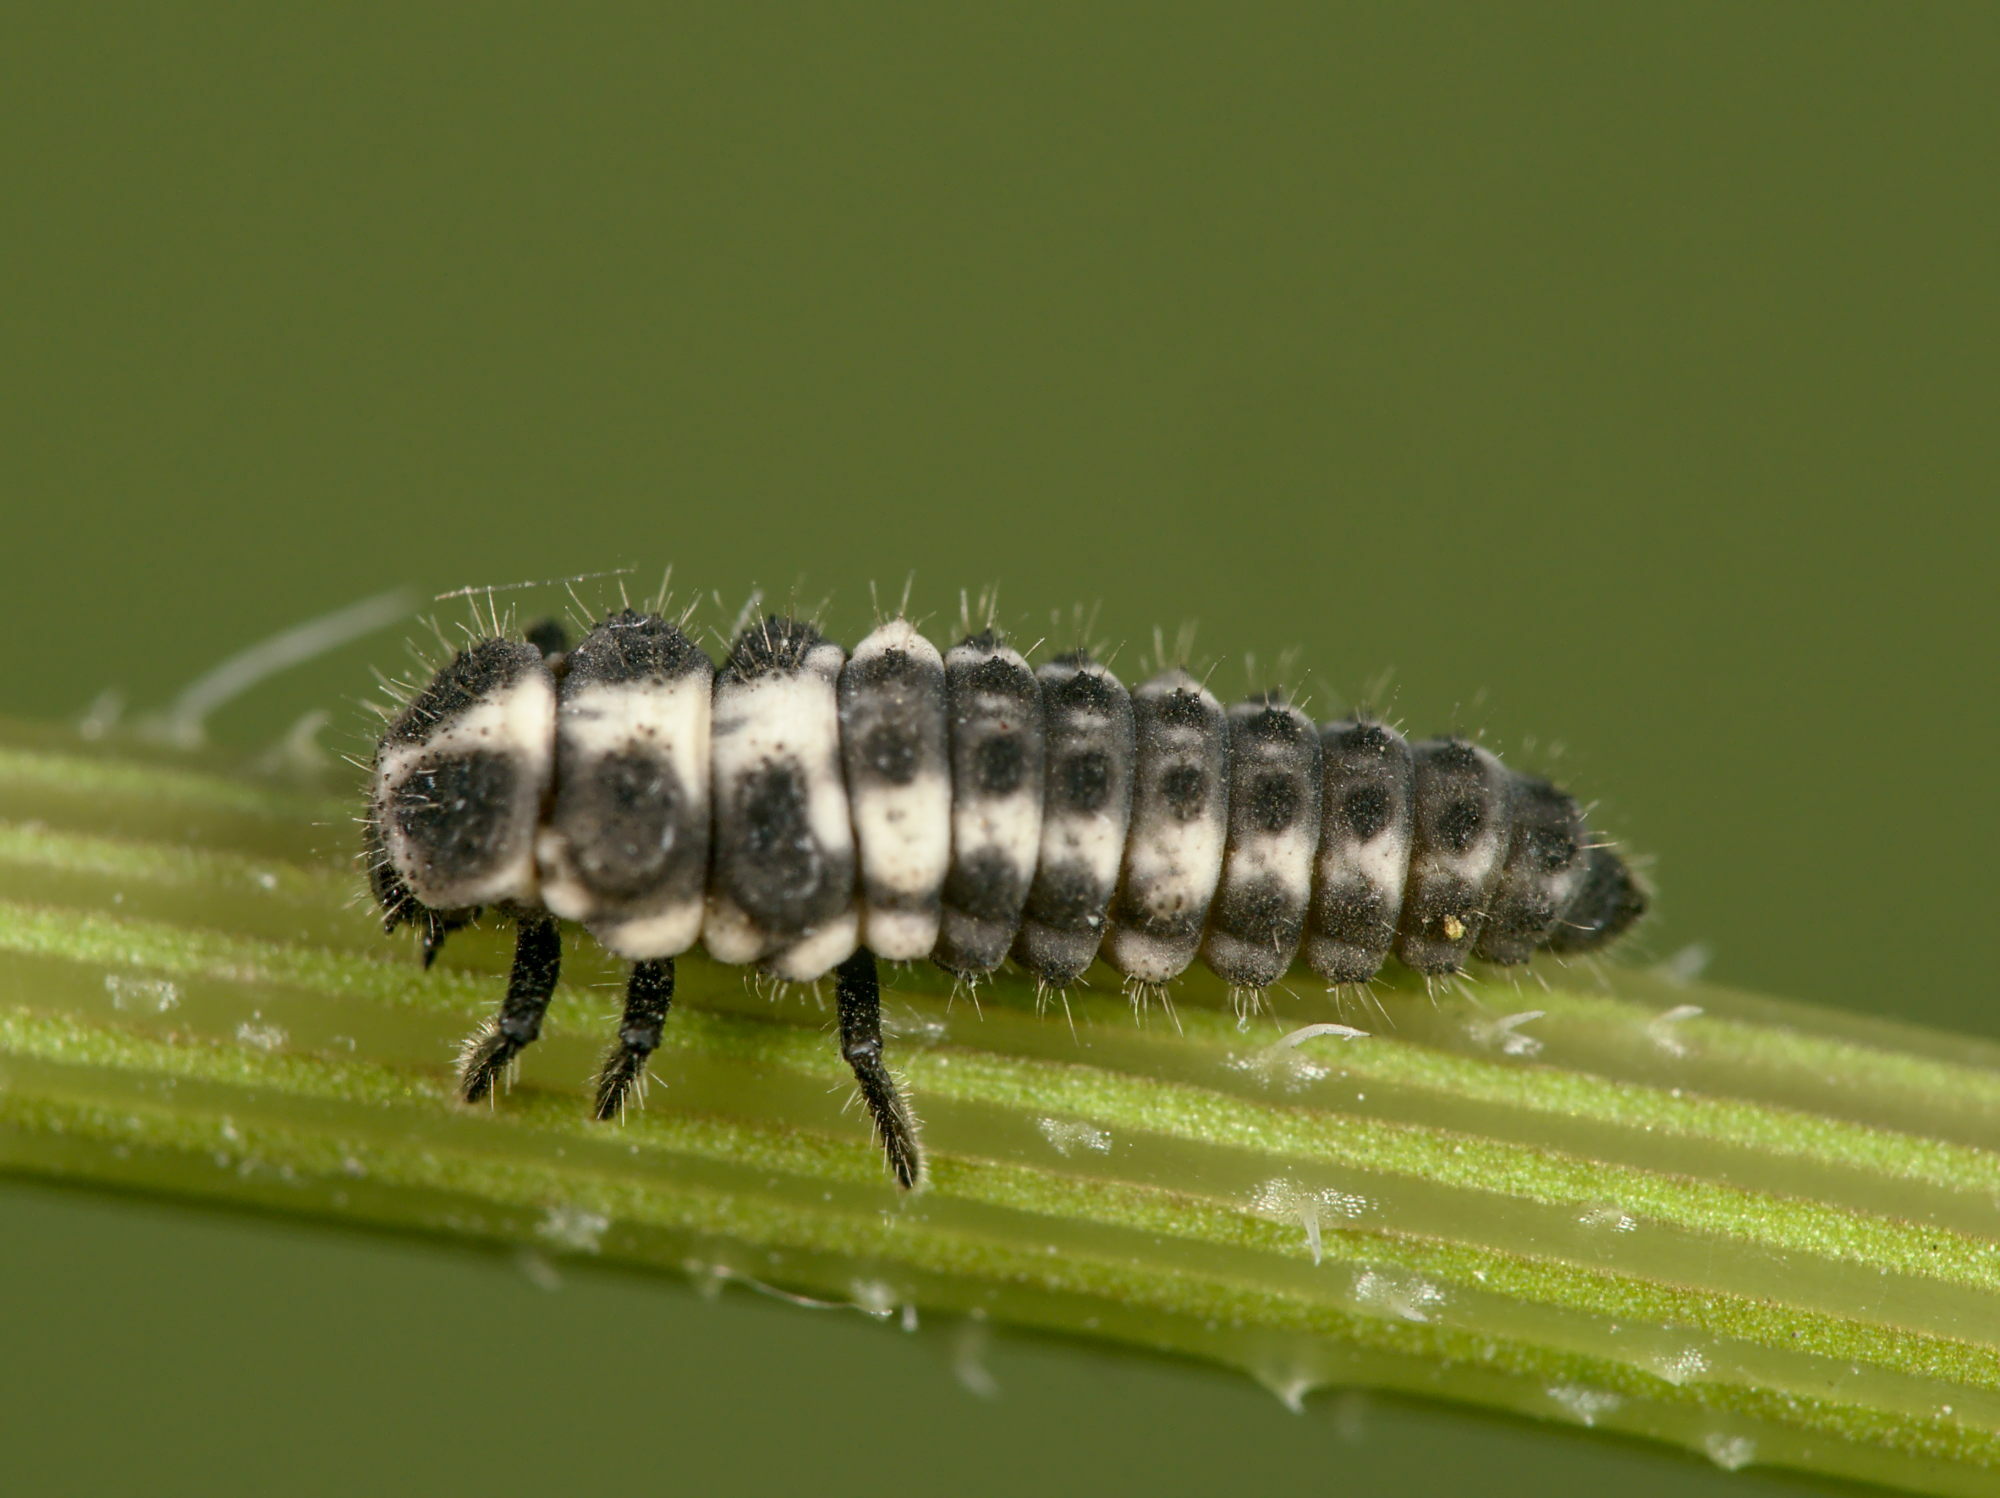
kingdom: Animalia
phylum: Arthropoda
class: Insecta
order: Coleoptera
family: Coccinellidae
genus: Coccinula
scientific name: Coccinula quatuordecimpustulata
